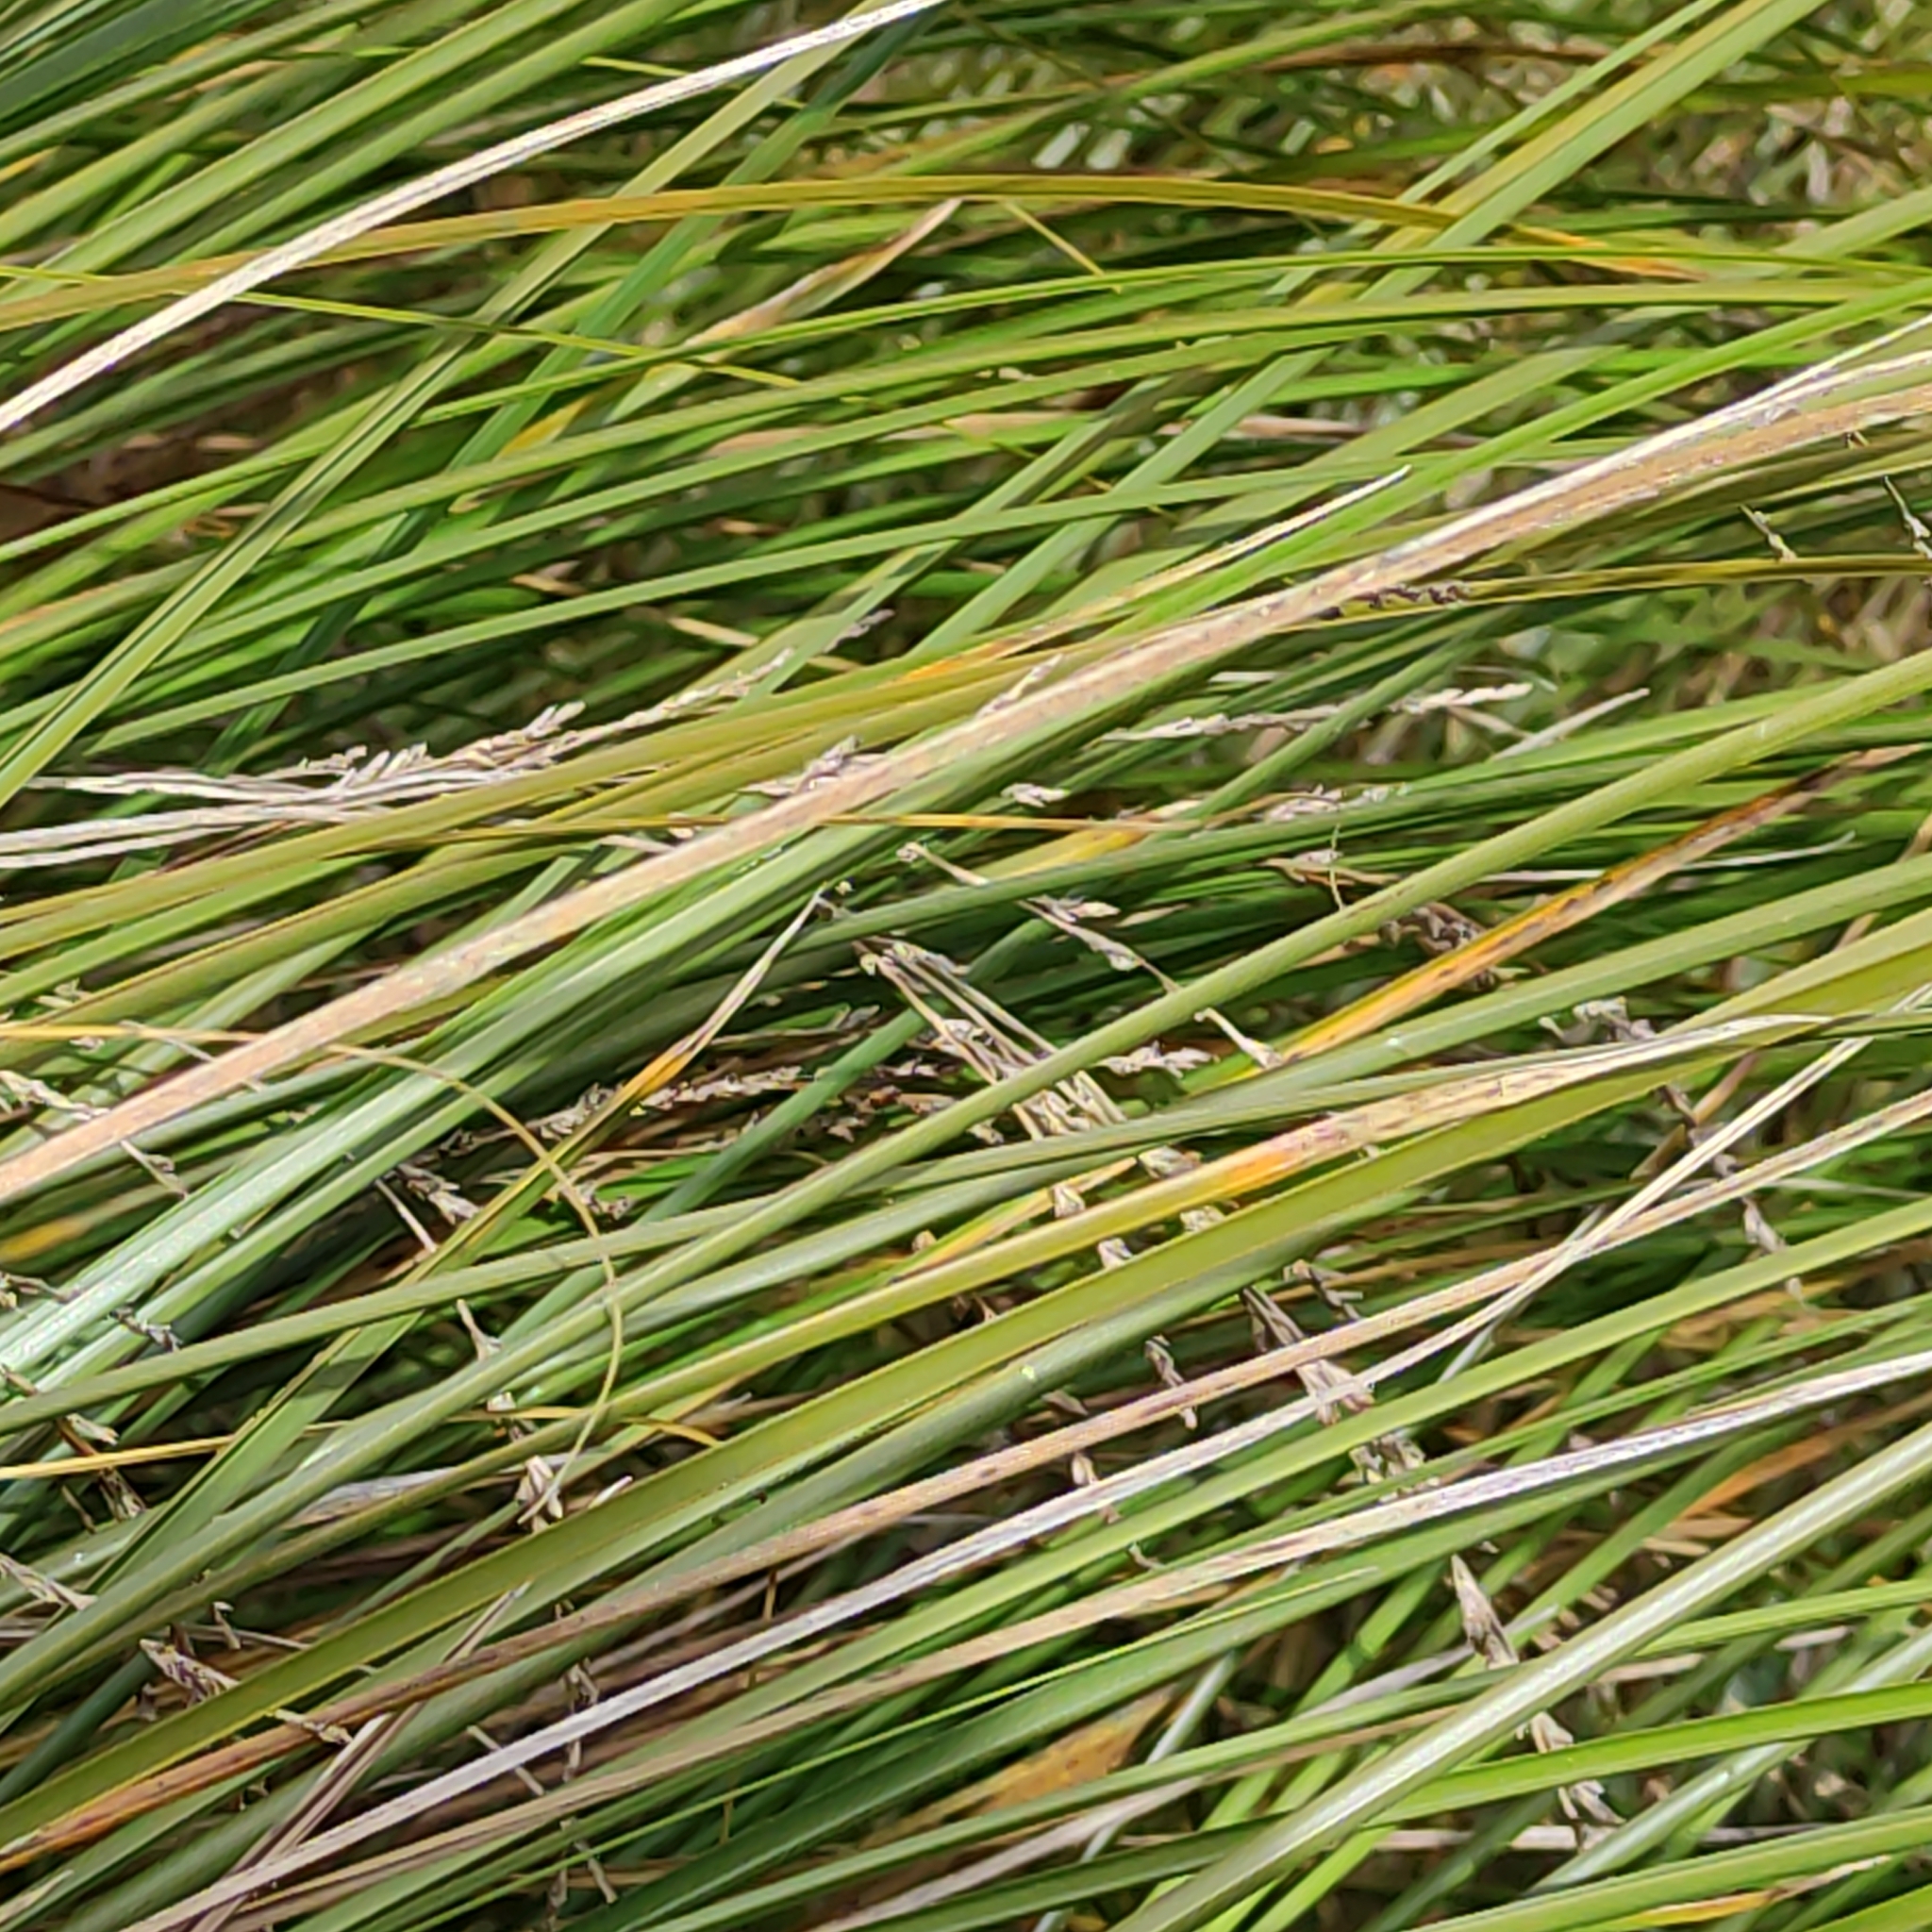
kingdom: Plantae
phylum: Tracheophyta
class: Liliopsida
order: Poales
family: Cyperaceae
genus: Carex
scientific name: Carex secta
